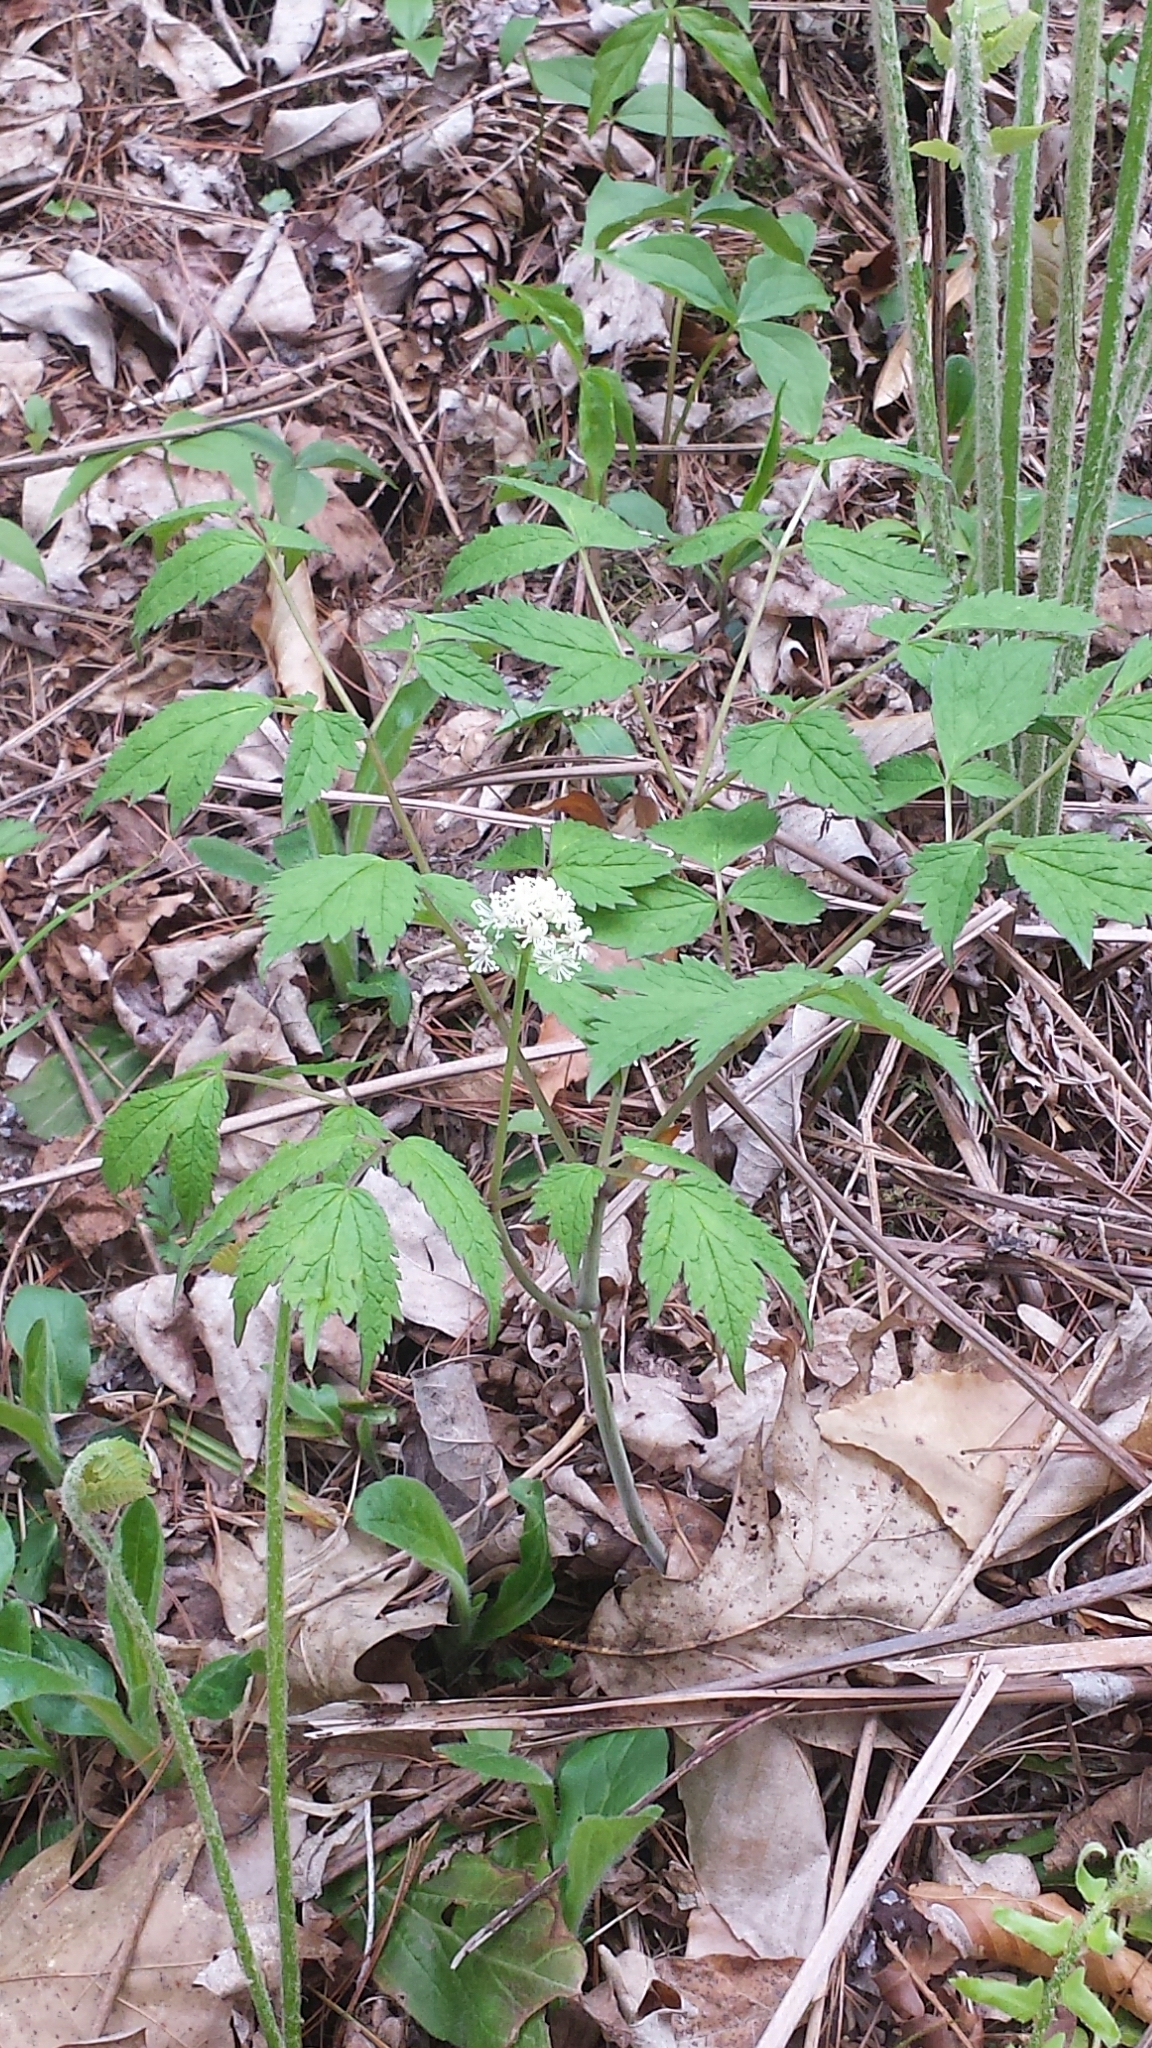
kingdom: Plantae
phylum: Tracheophyta
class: Magnoliopsida
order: Ranunculales
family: Ranunculaceae
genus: Actaea
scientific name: Actaea rubra
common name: Red baneberry
